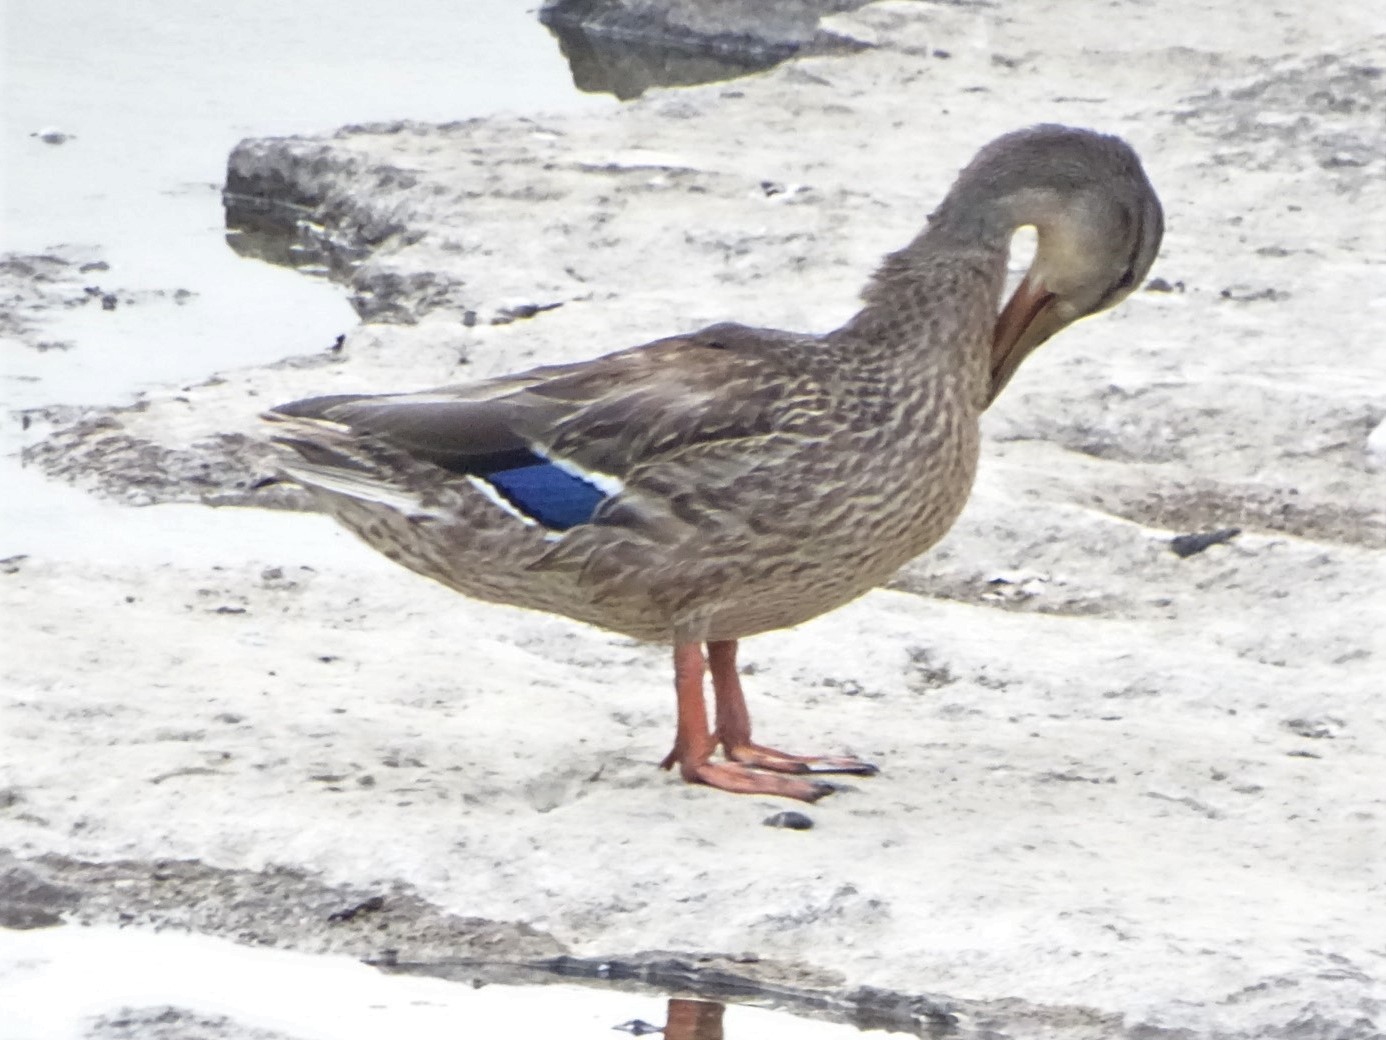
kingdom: Animalia
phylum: Chordata
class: Aves
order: Anseriformes
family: Anatidae
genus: Anas
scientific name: Anas platyrhynchos
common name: Mallard
